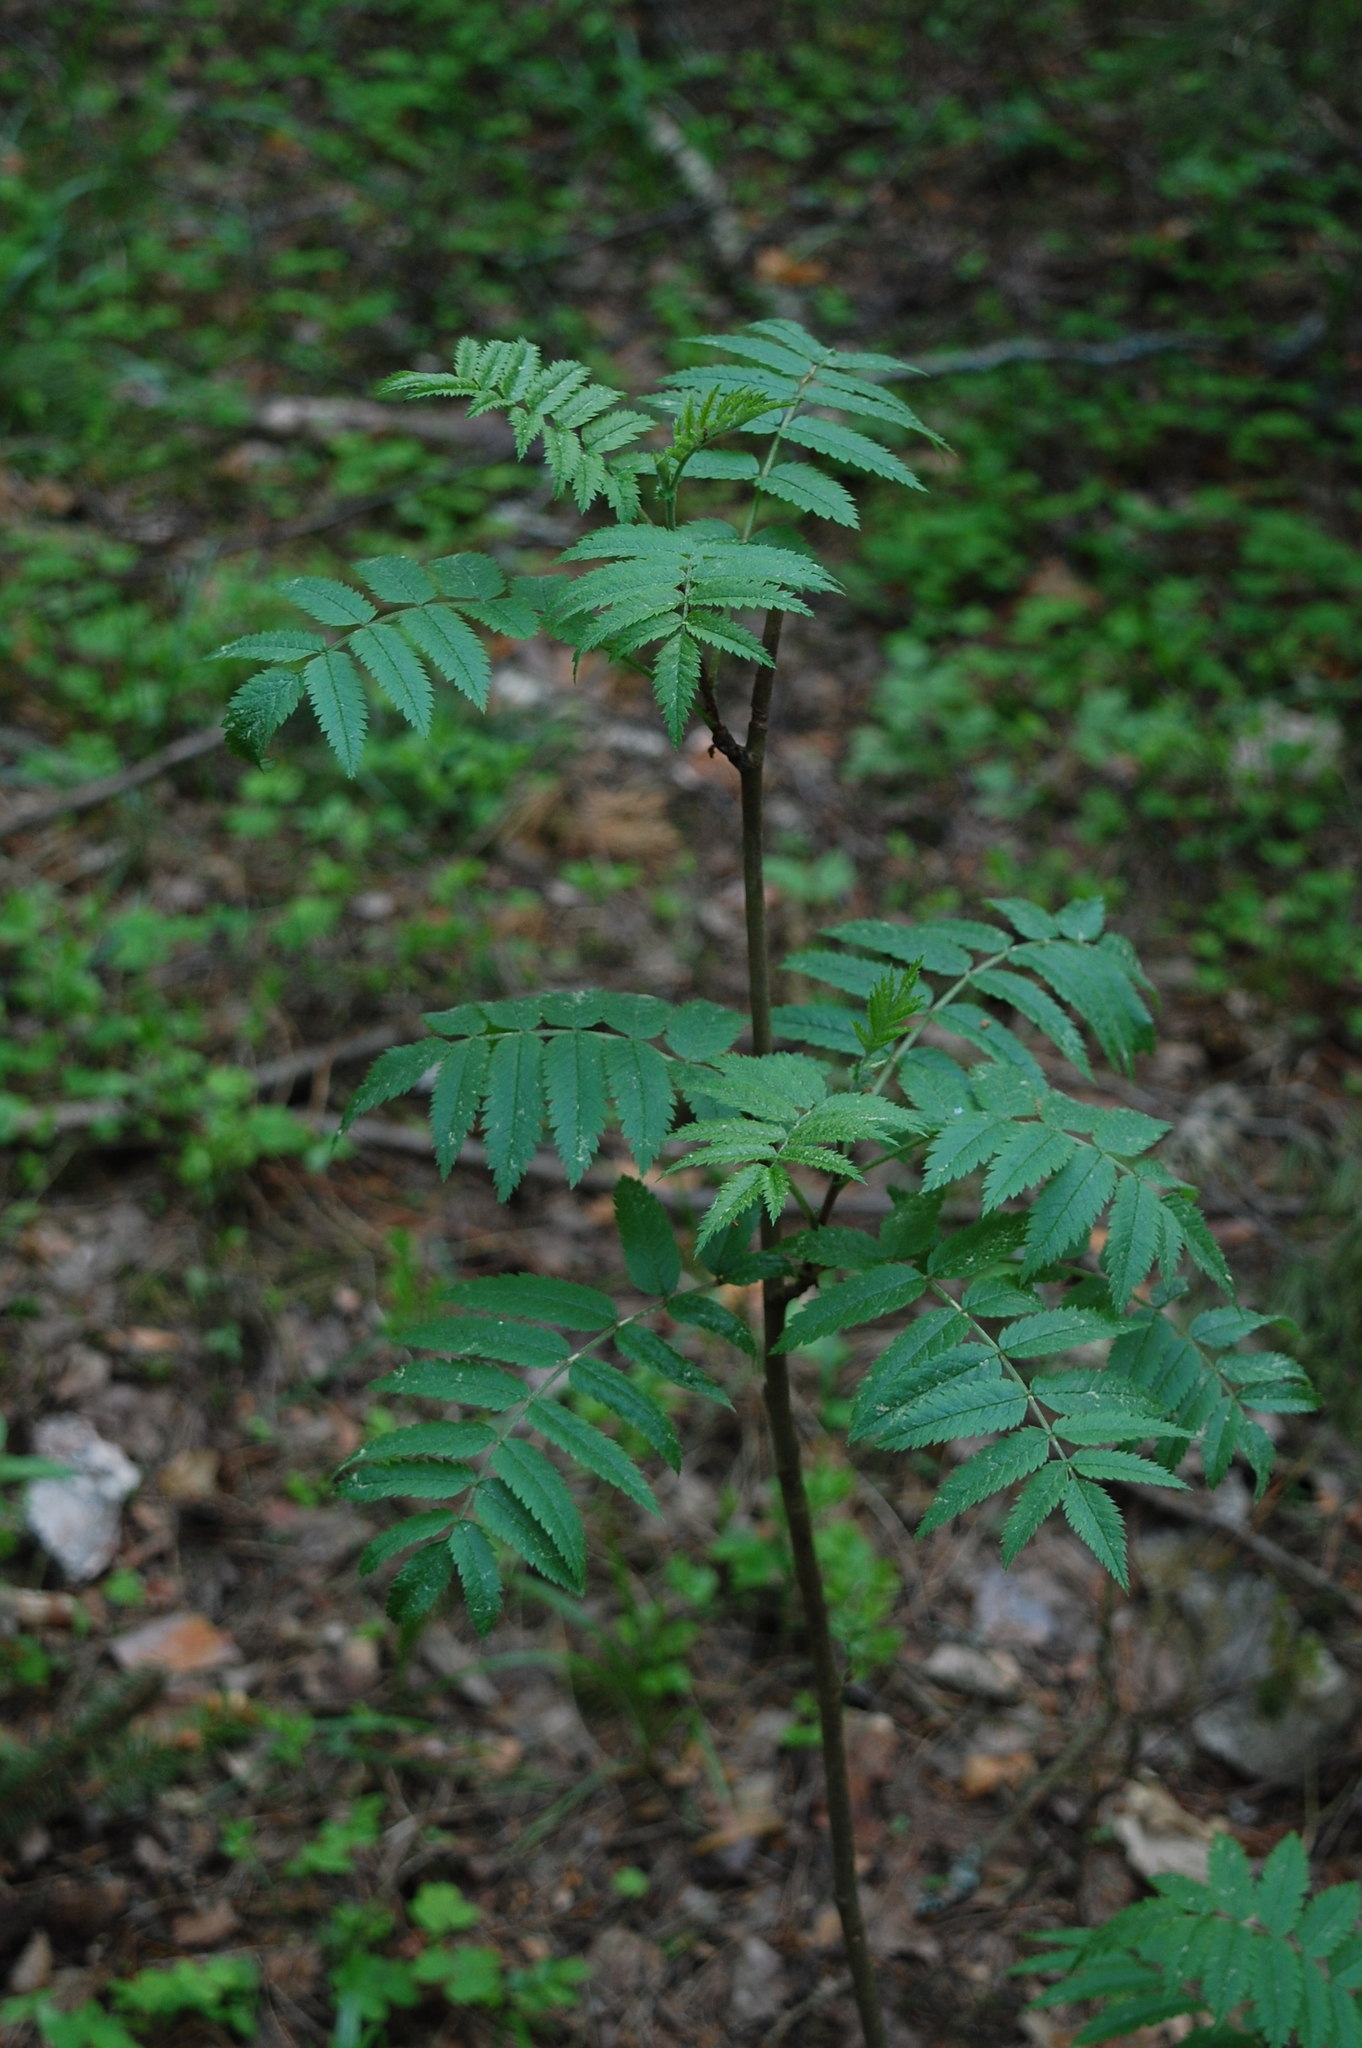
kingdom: Plantae
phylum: Tracheophyta
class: Magnoliopsida
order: Rosales
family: Rosaceae
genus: Sorbus
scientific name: Sorbus aucuparia
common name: Rowan
